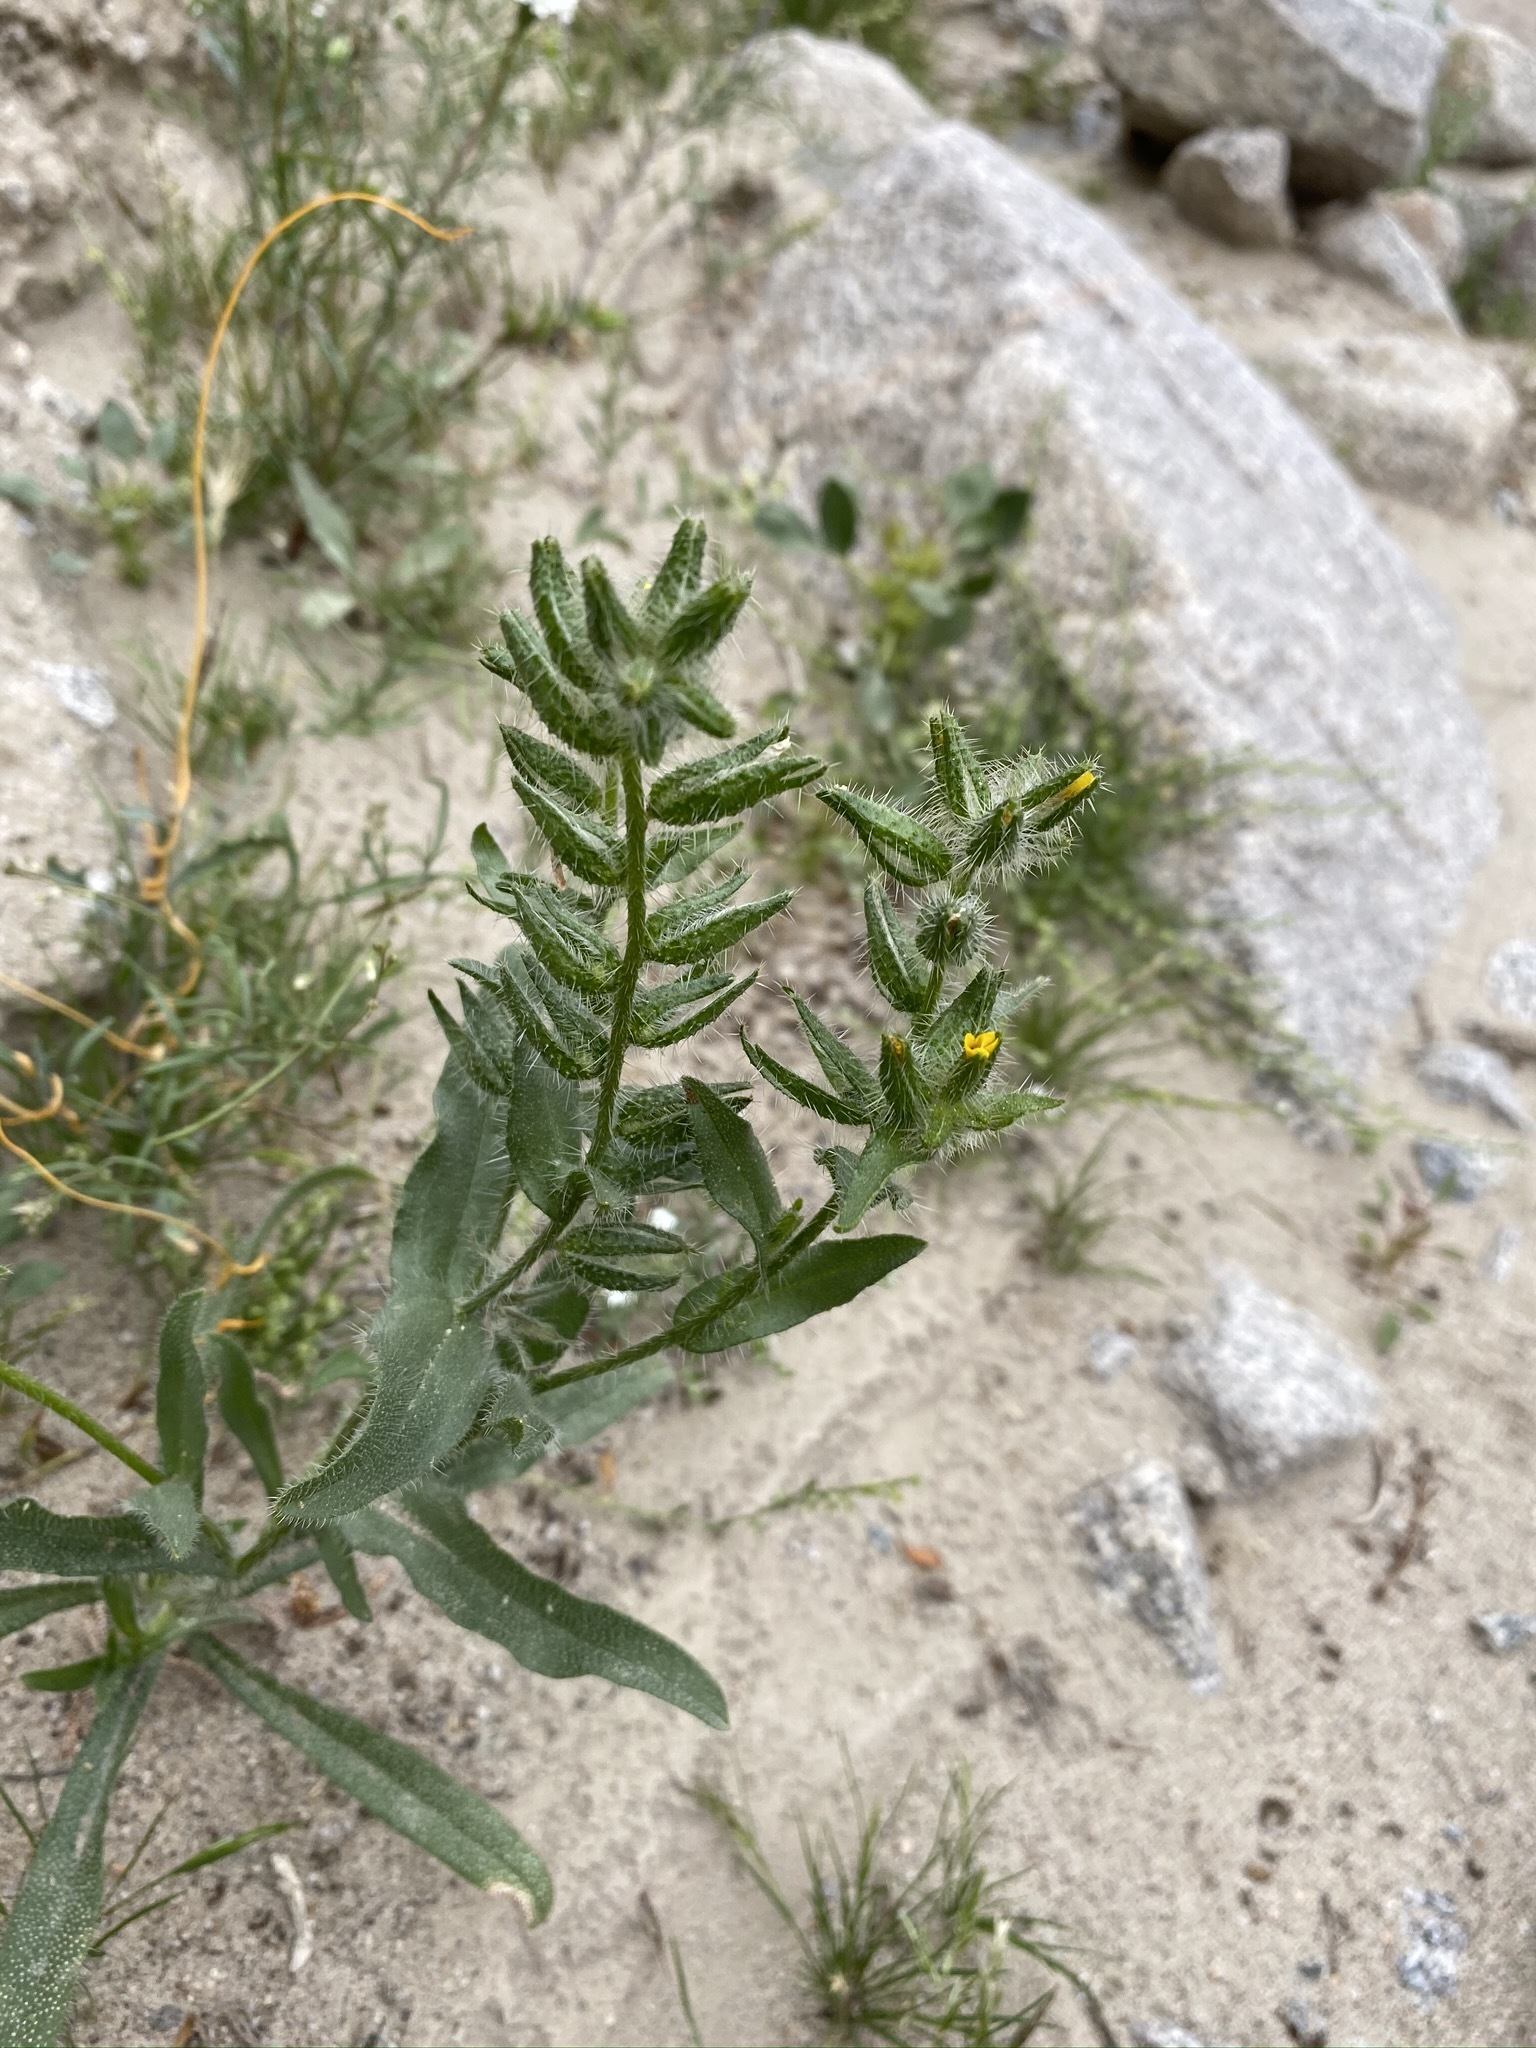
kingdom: Plantae
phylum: Tracheophyta
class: Magnoliopsida
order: Boraginales
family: Boraginaceae
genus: Amsinckia
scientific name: Amsinckia tessellata
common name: Tessellate fiddleneck
